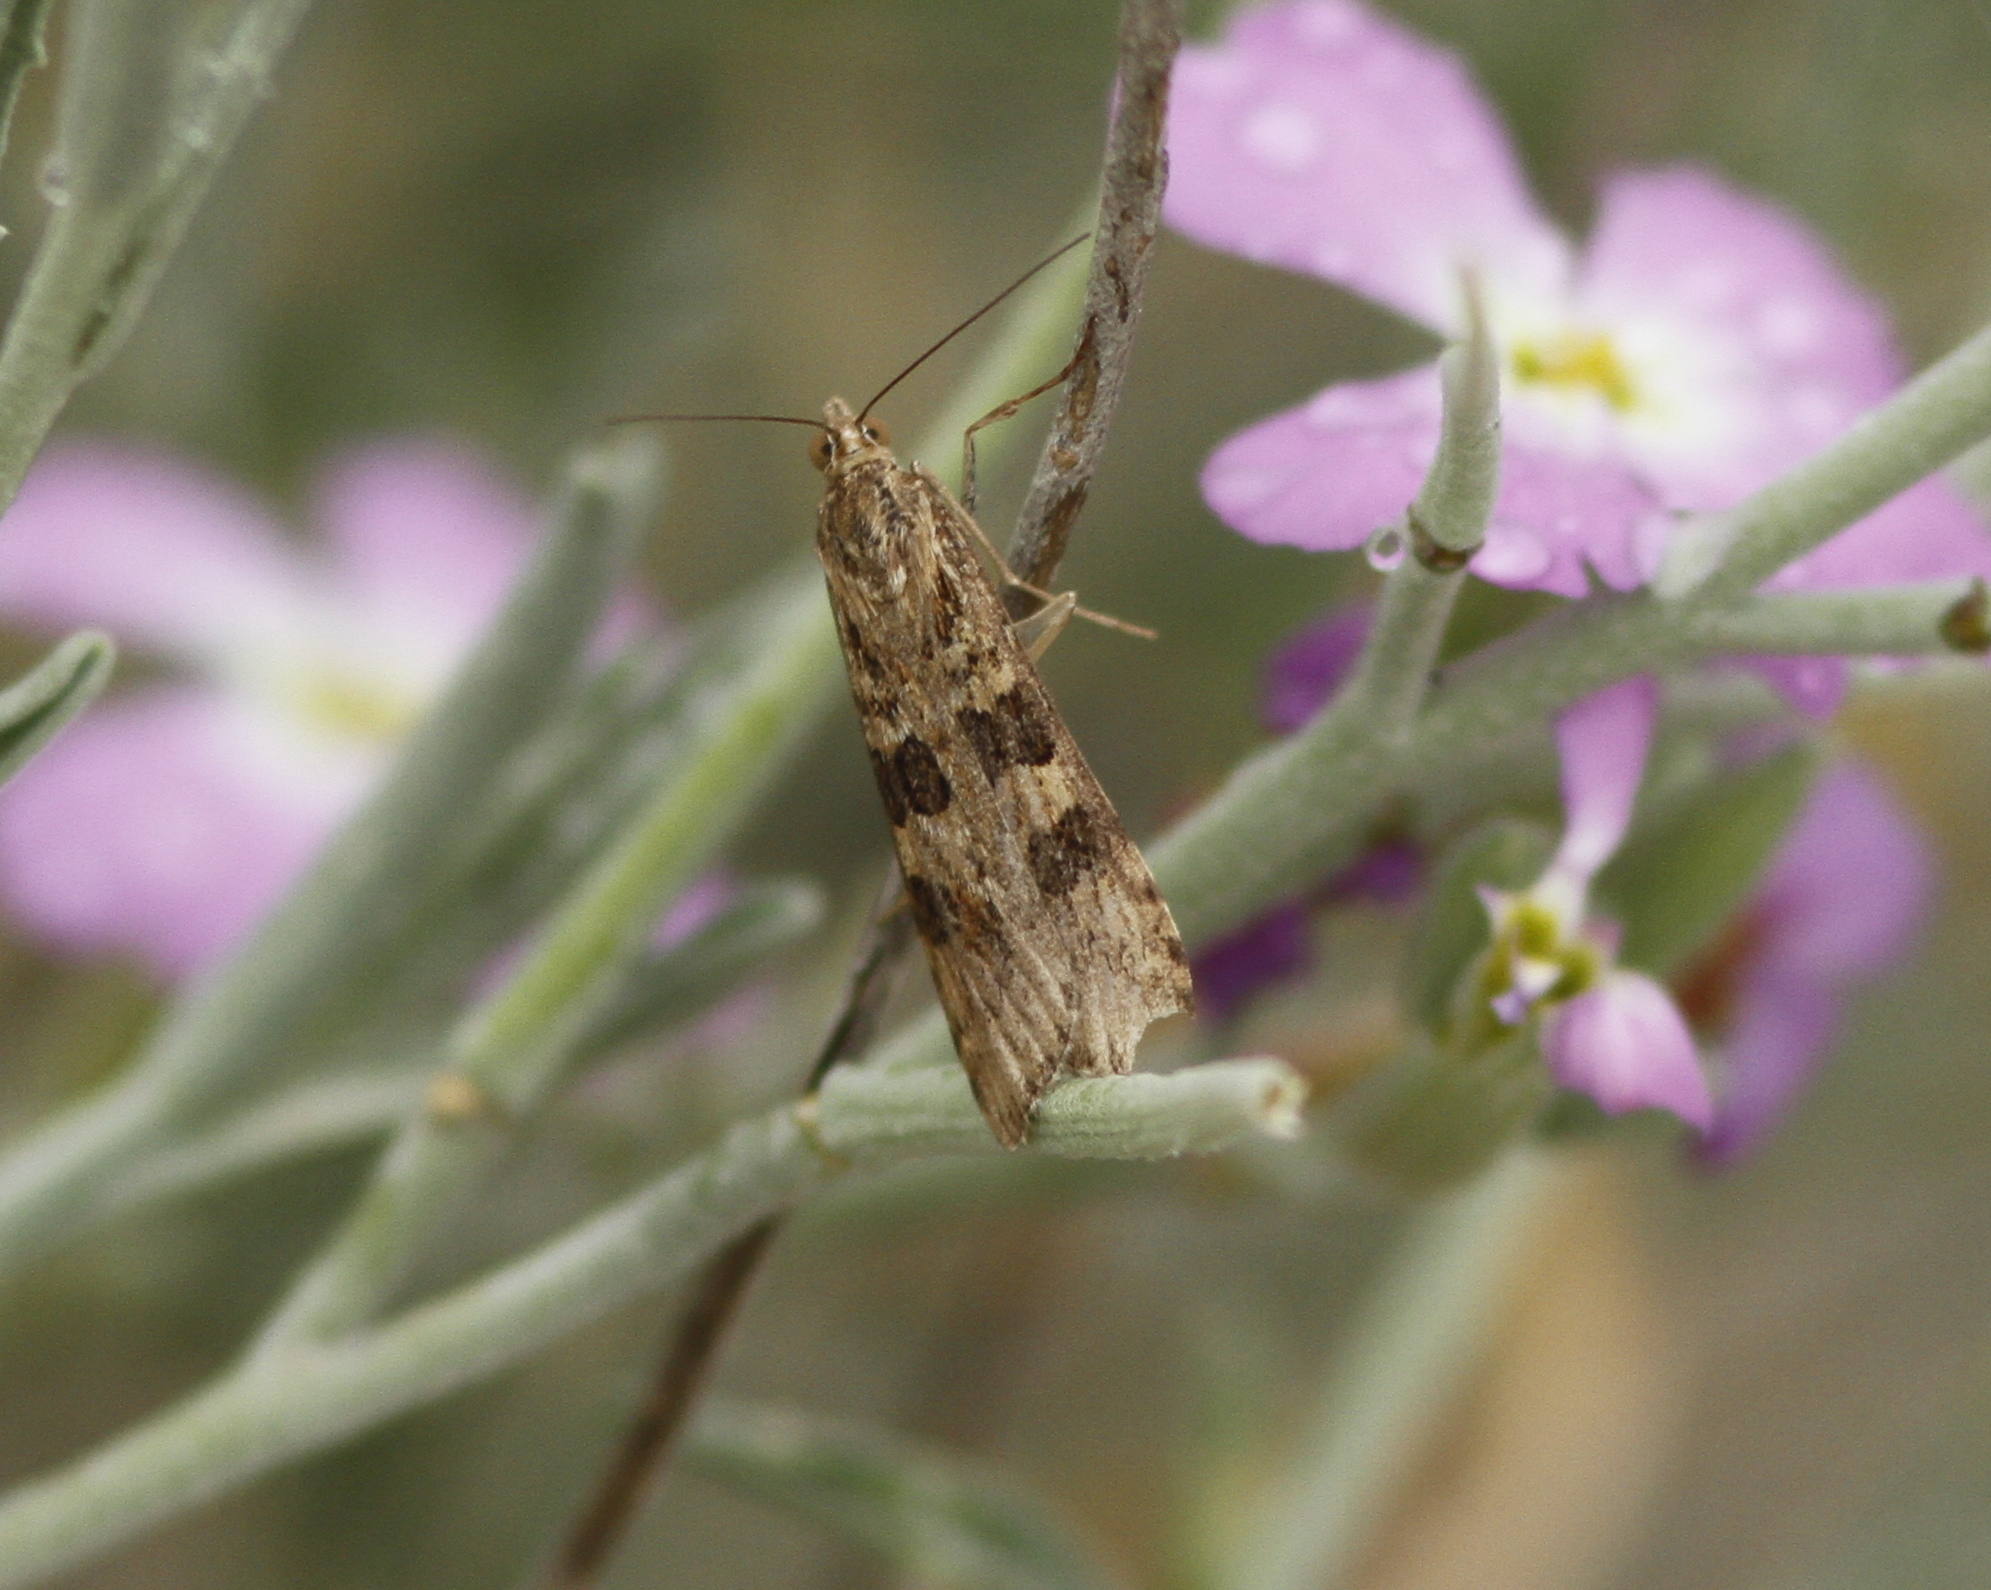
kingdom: Animalia
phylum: Arthropoda
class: Insecta
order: Lepidoptera
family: Crambidae
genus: Nomophila
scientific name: Nomophila noctuella
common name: Rush veneer
